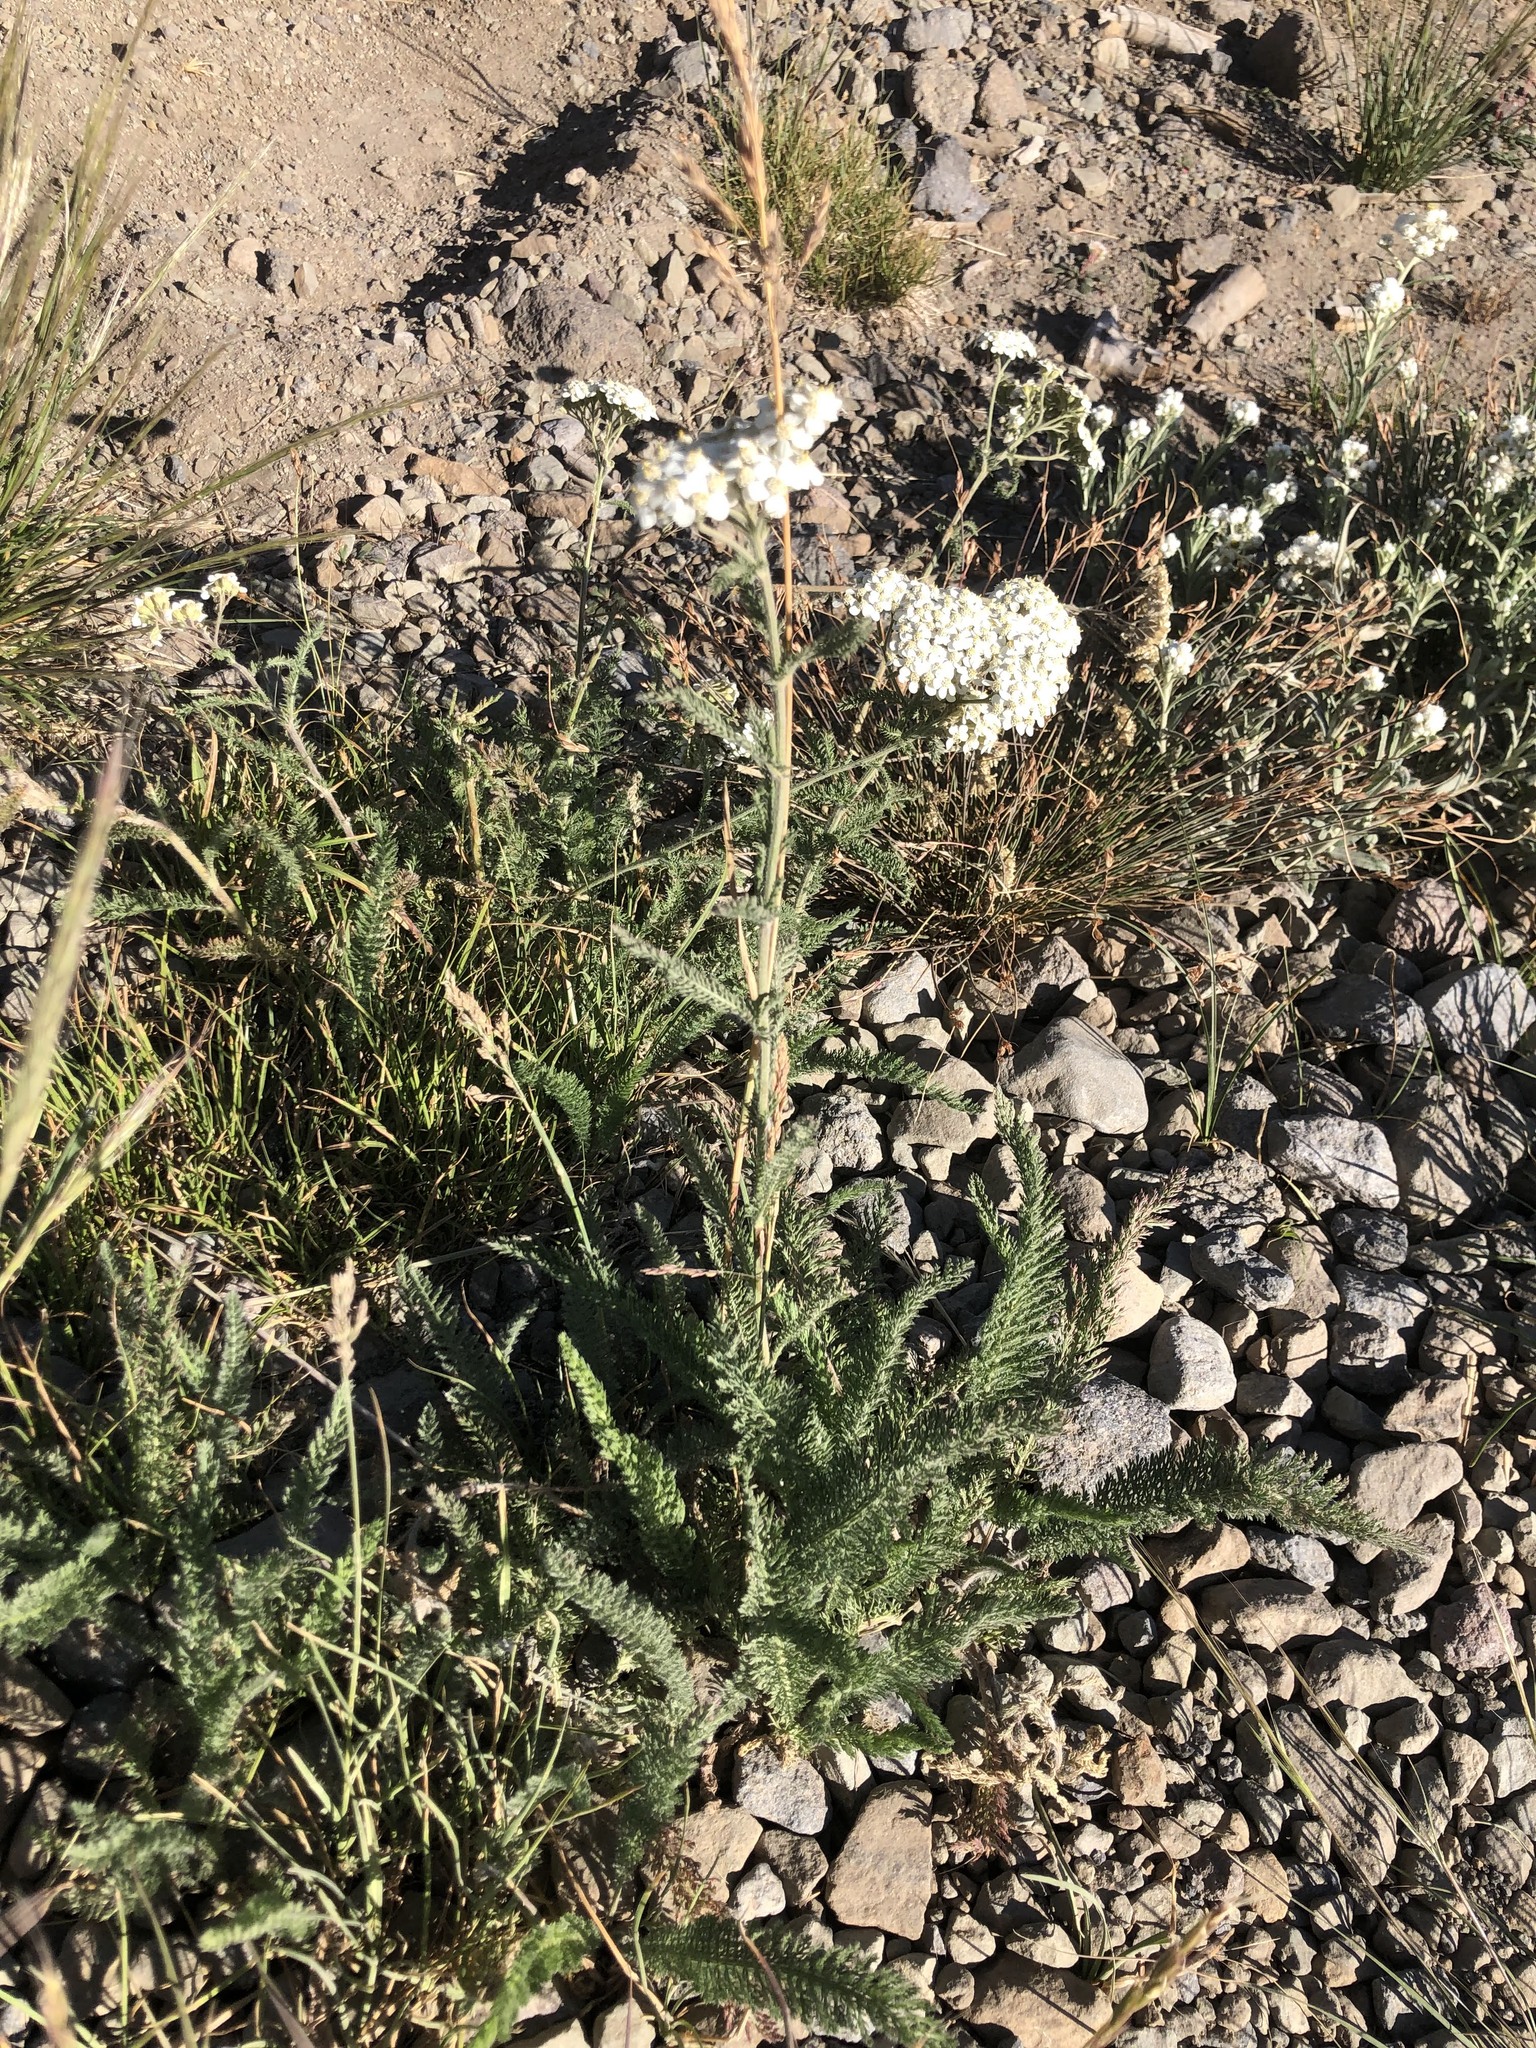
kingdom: Plantae
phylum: Tracheophyta
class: Magnoliopsida
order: Asterales
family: Asteraceae
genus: Achillea
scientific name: Achillea millefolium
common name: Yarrow
